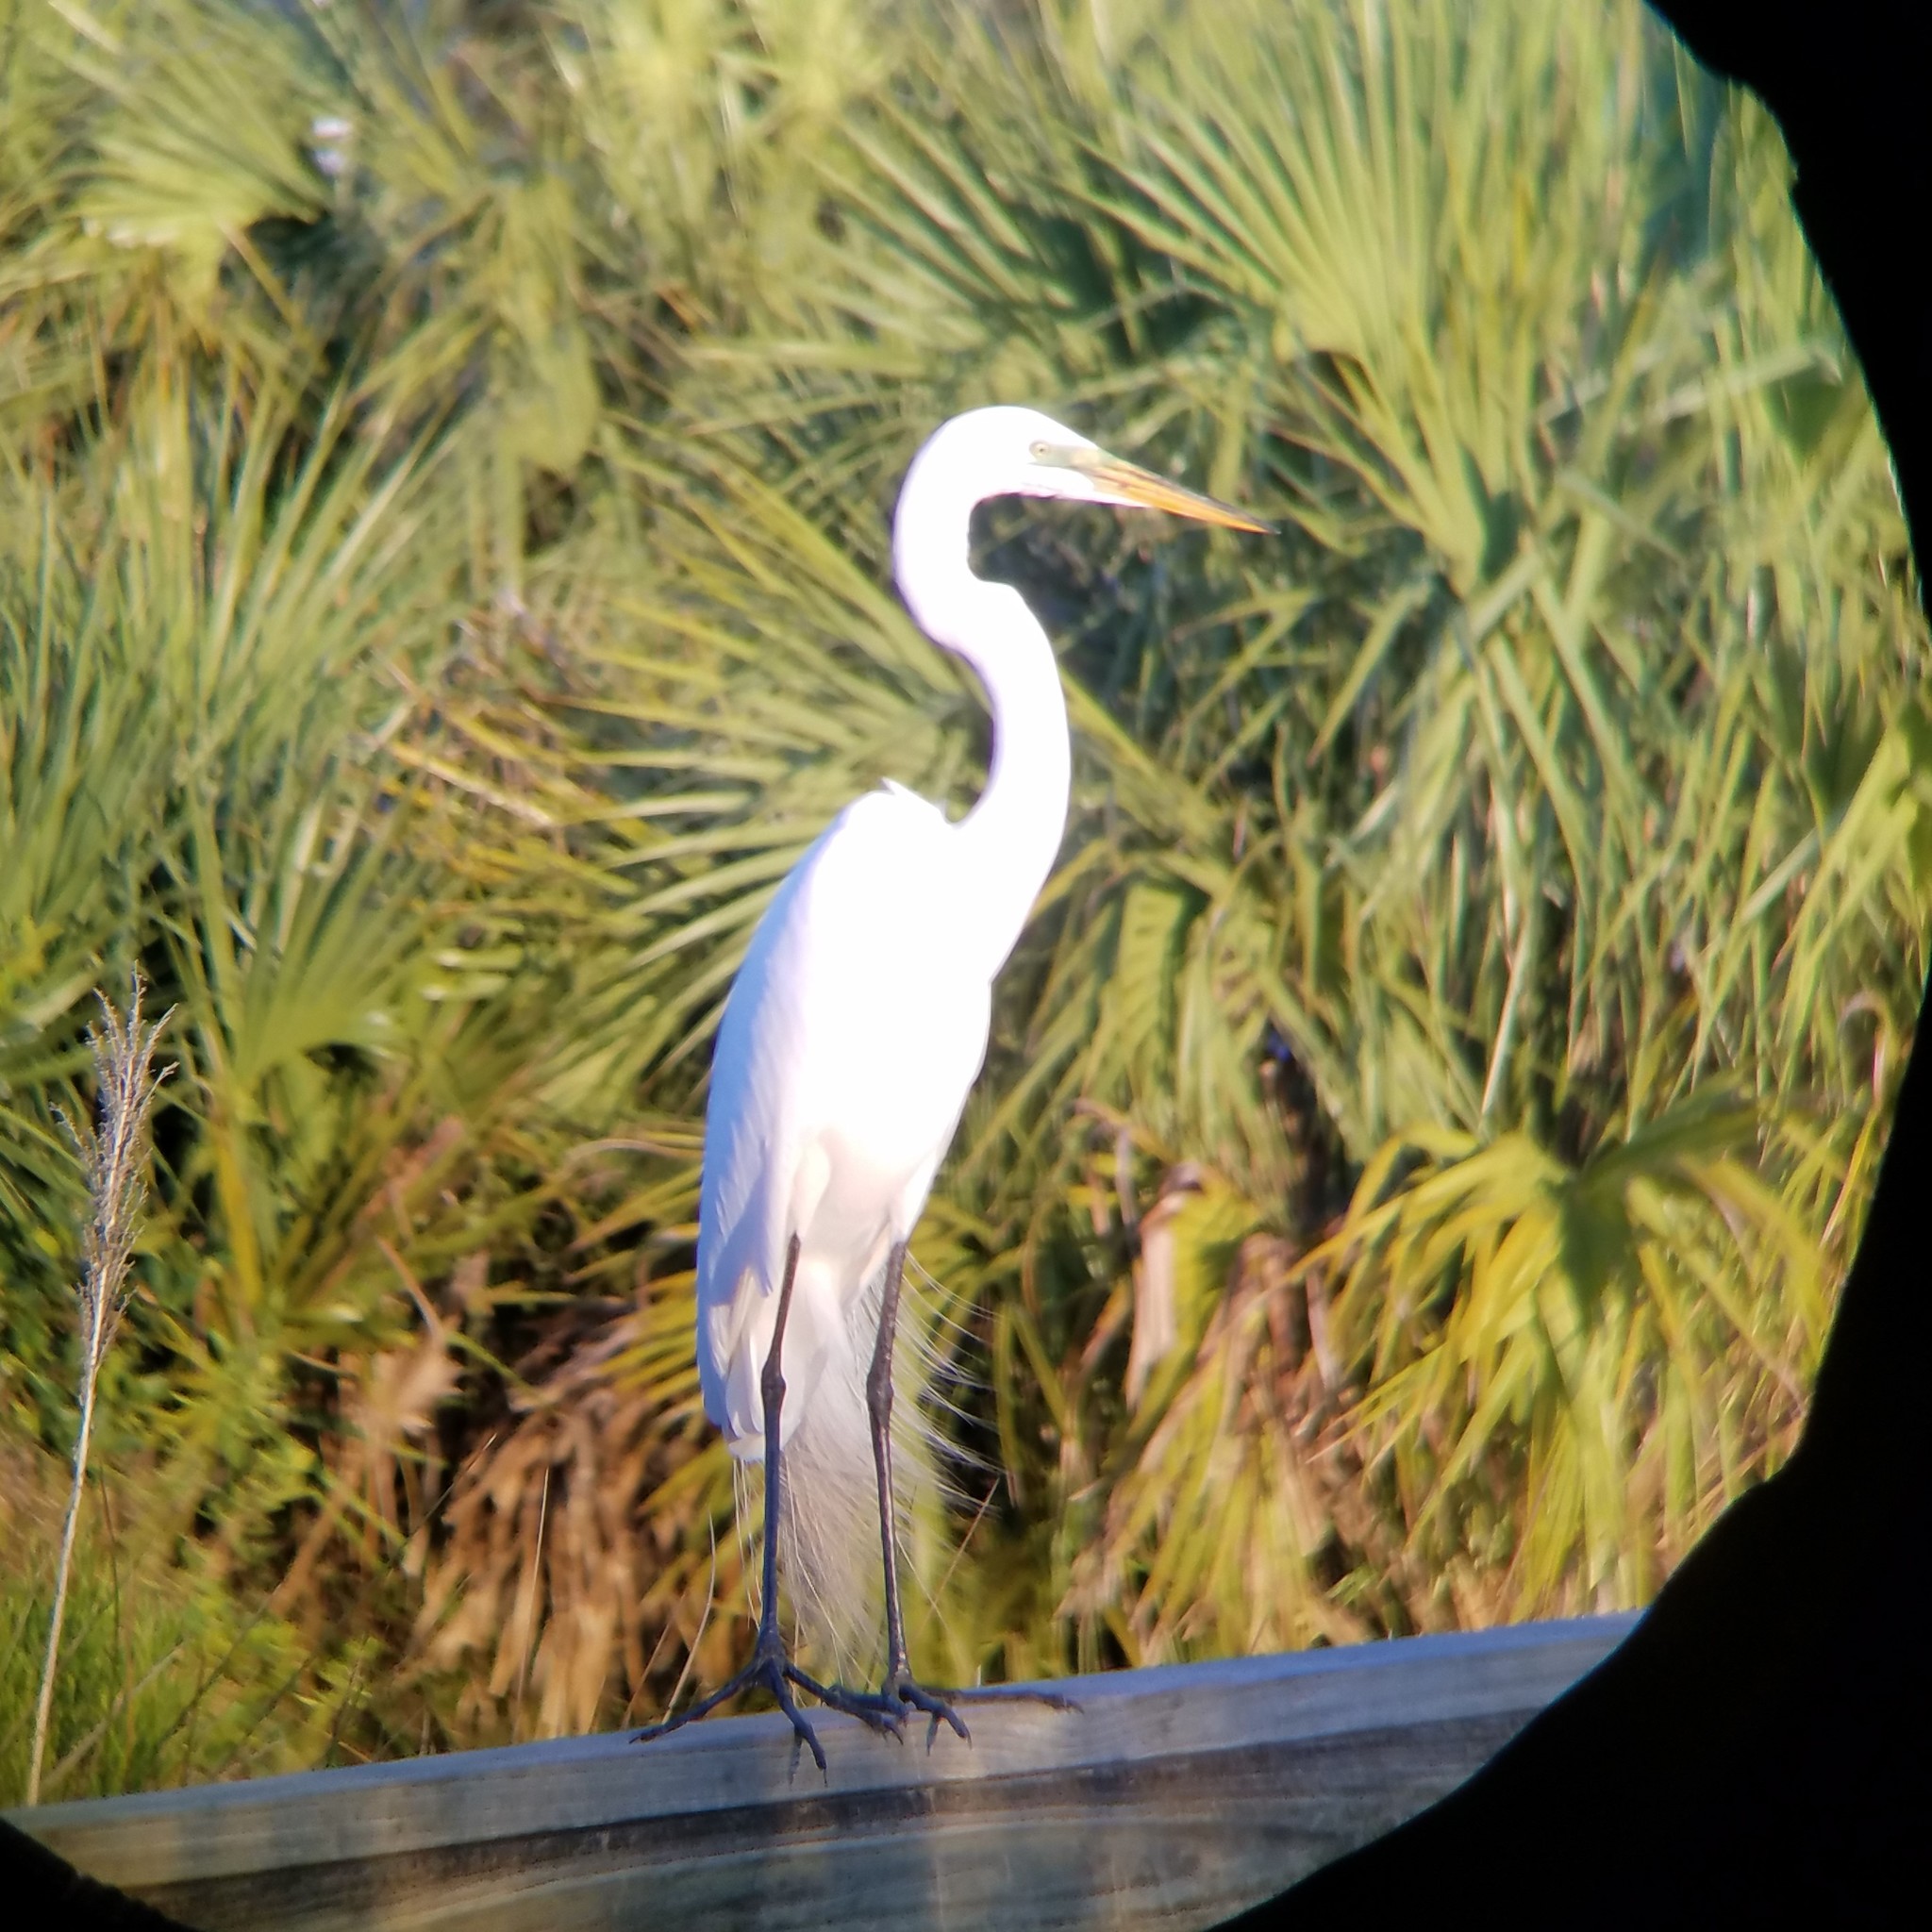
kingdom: Animalia
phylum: Chordata
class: Aves
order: Pelecaniformes
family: Ardeidae
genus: Ardea
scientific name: Ardea alba
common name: Great egret
